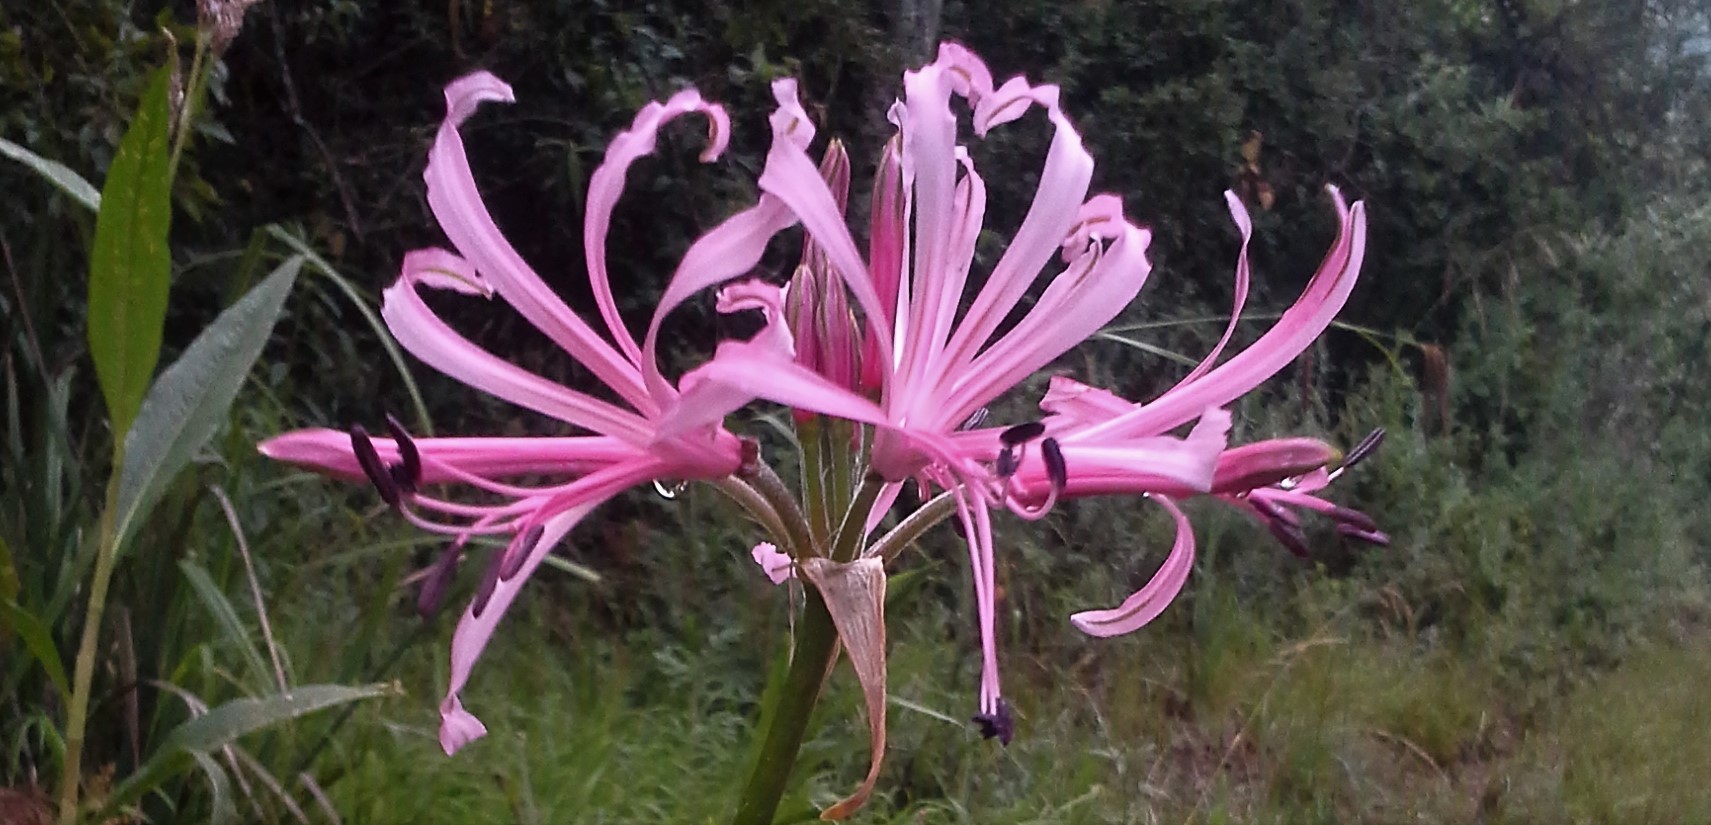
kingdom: Plantae
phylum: Tracheophyta
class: Liliopsida
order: Asparagales
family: Amaryllidaceae
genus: Nerine
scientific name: Nerine angustifolia
